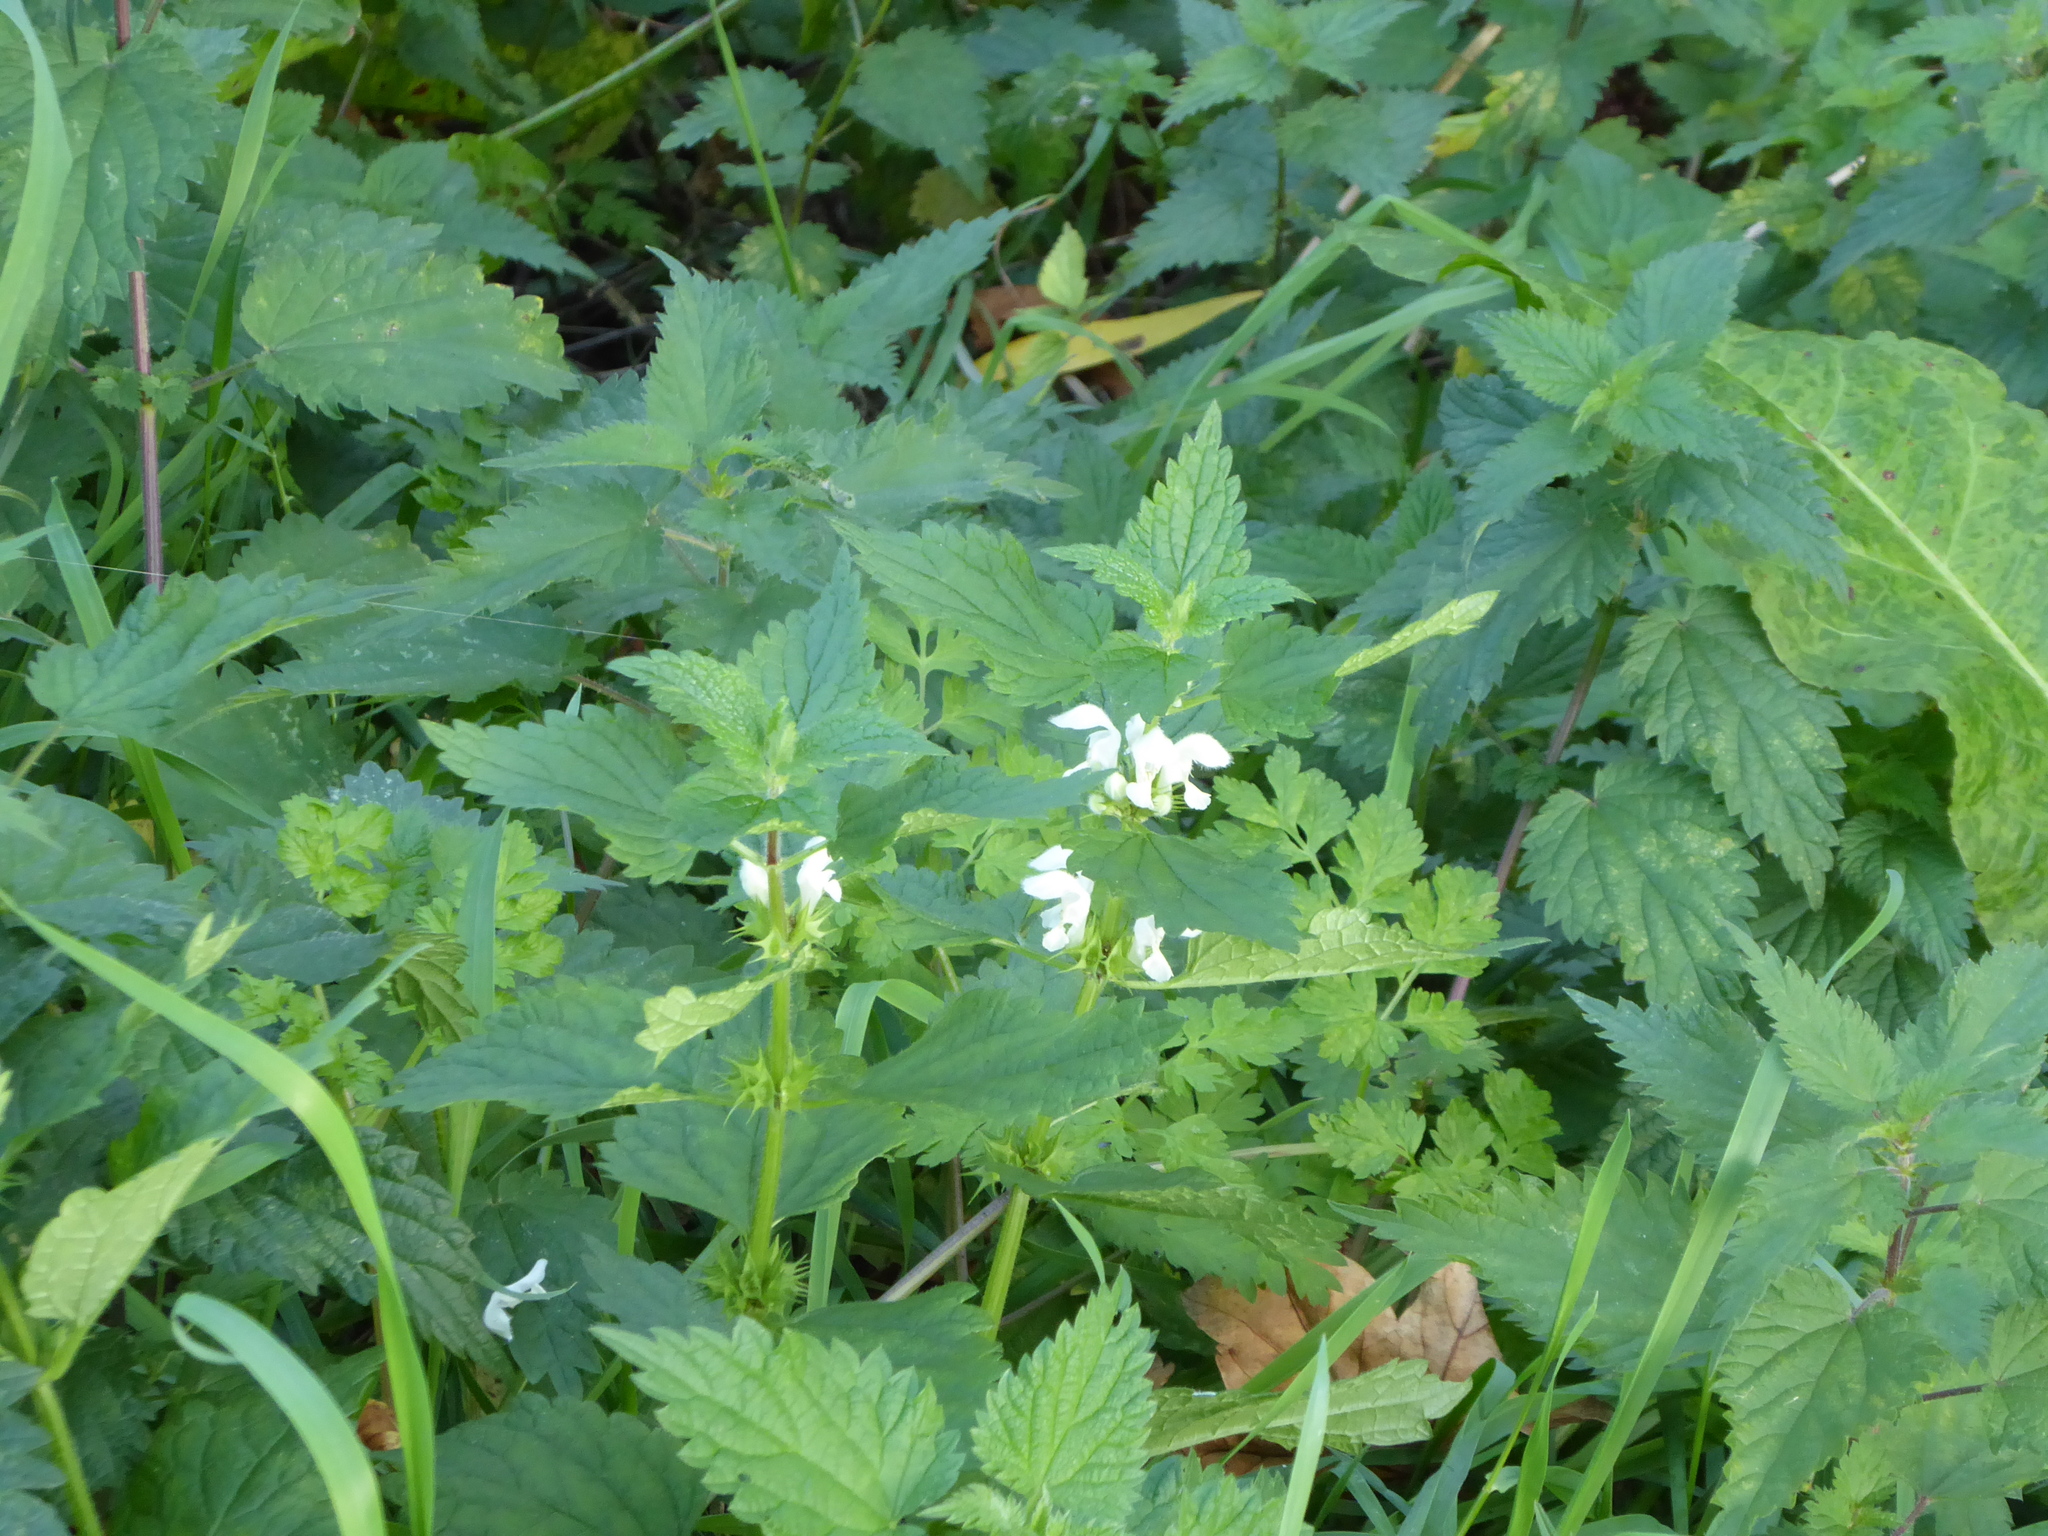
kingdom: Plantae
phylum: Tracheophyta
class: Magnoliopsida
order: Lamiales
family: Lamiaceae
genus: Lamium
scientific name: Lamium album
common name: White dead-nettle
